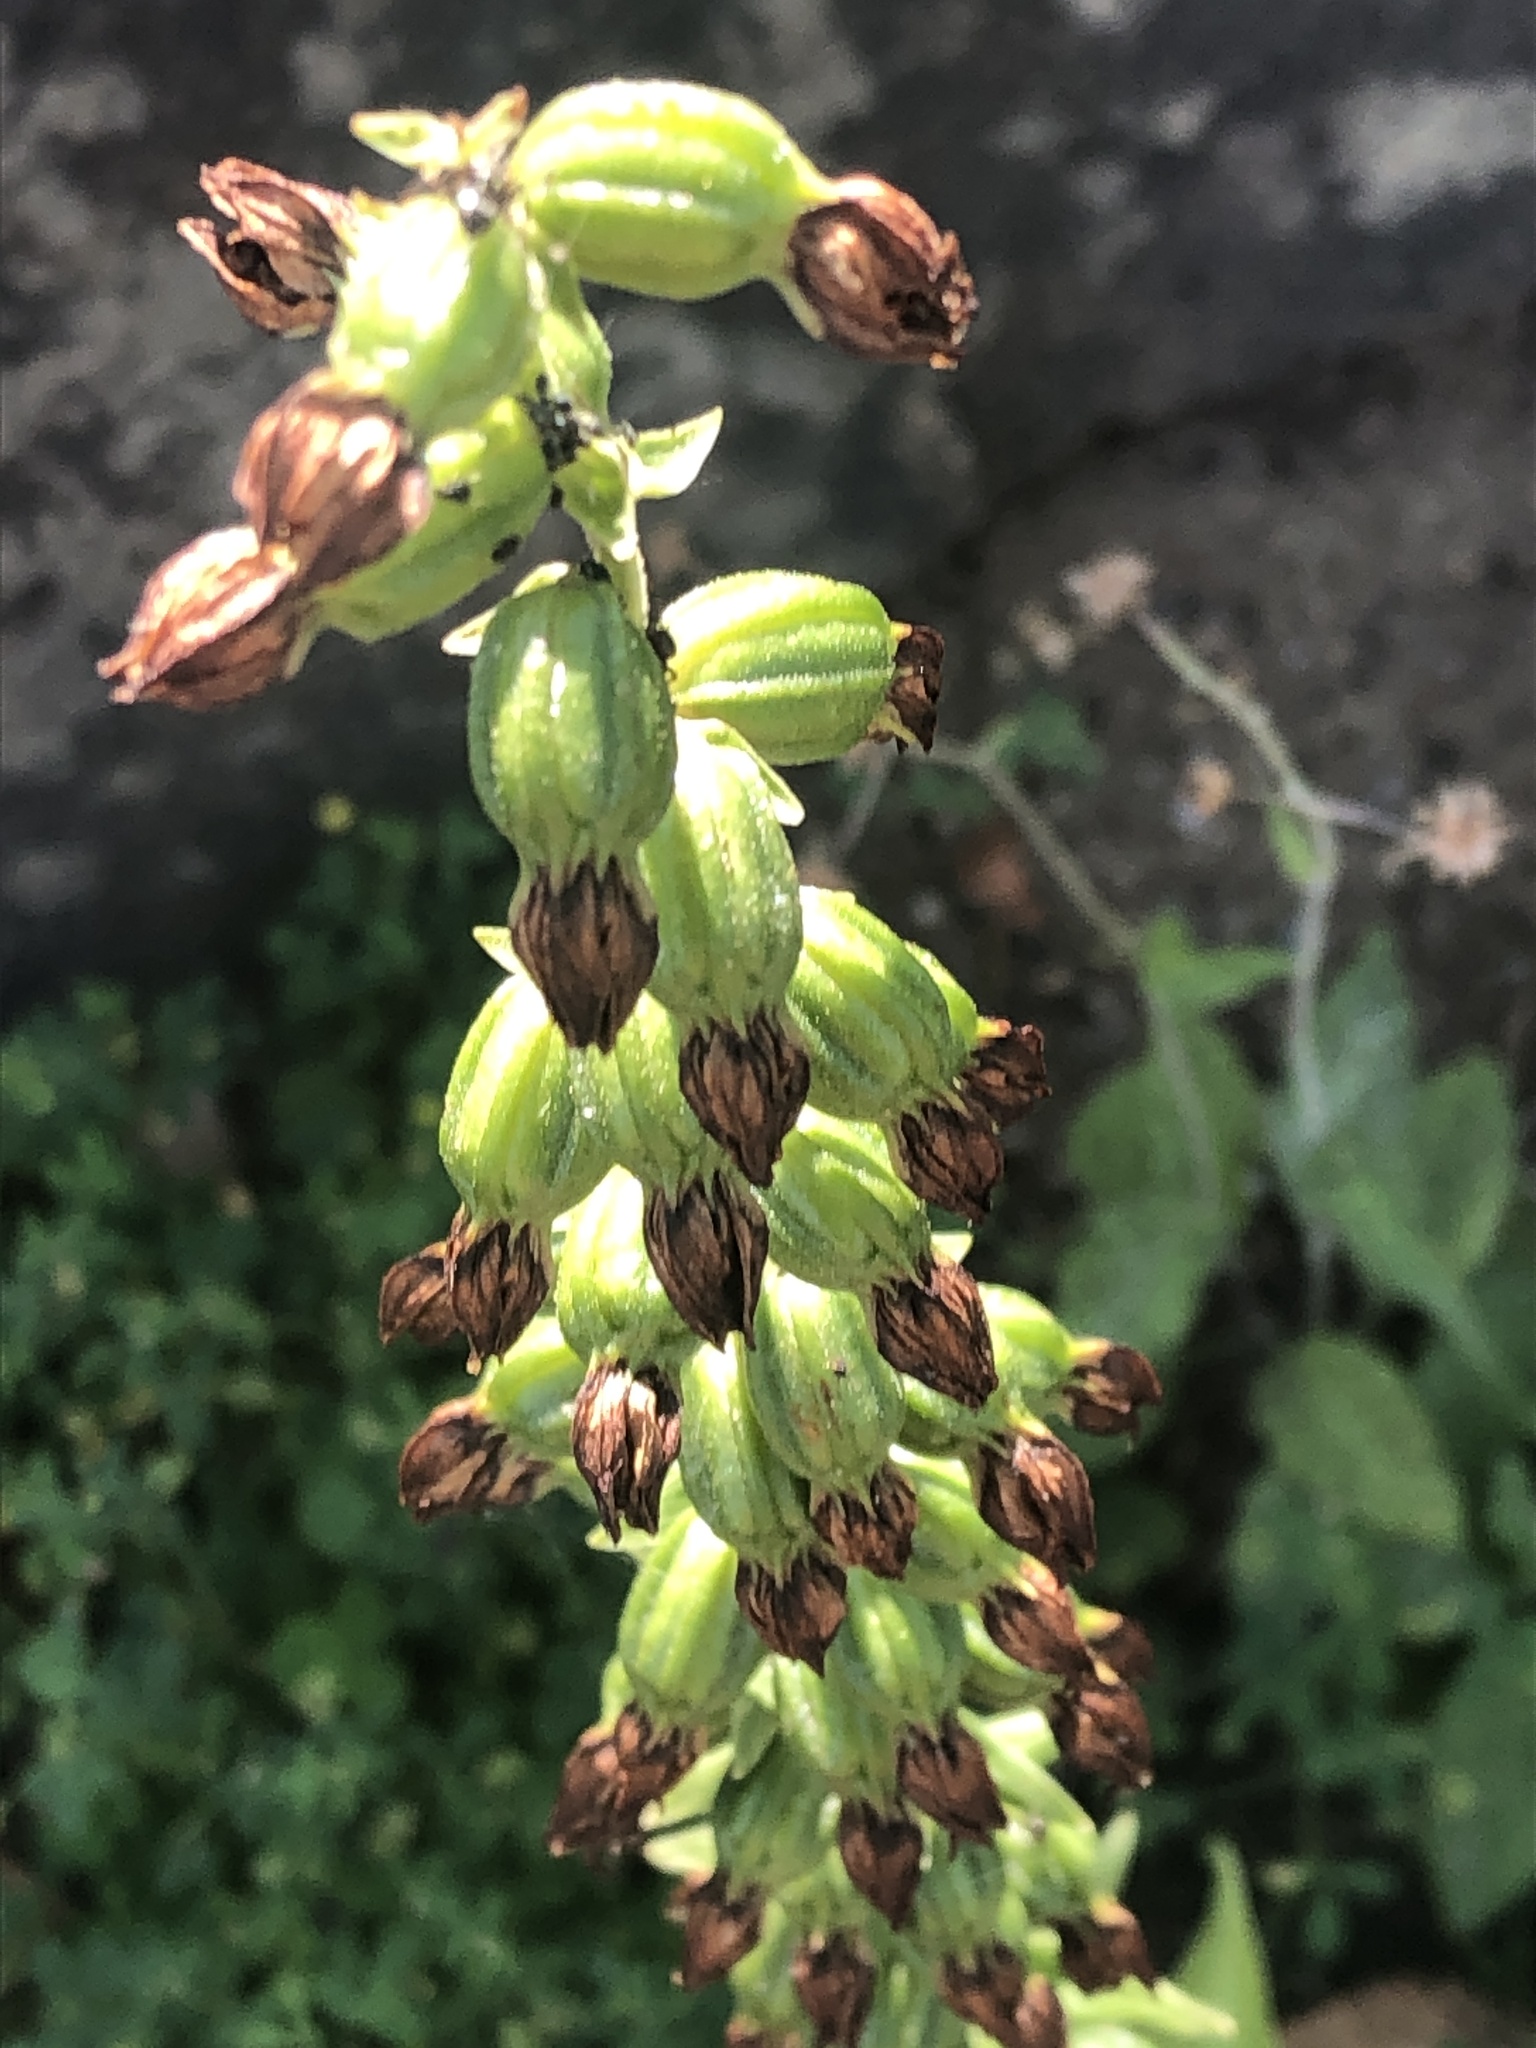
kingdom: Plantae
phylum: Tracheophyta
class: Liliopsida
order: Asparagales
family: Orchidaceae
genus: Epipactis
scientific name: Epipactis helleborine
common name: Broad-leaved helleborine
